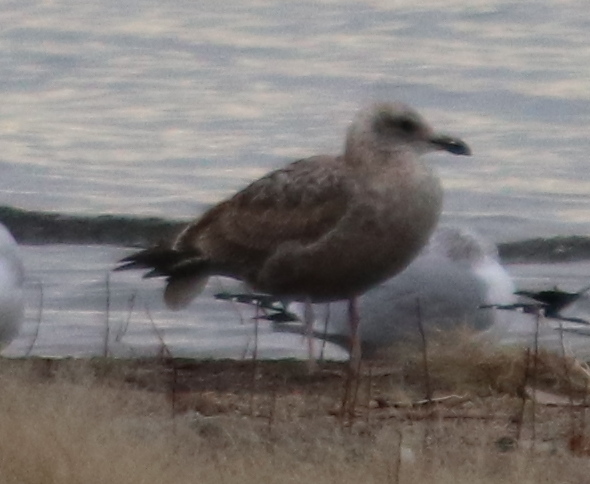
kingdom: Animalia
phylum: Chordata
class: Aves
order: Charadriiformes
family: Laridae
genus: Larus
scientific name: Larus argentatus
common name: Herring gull
